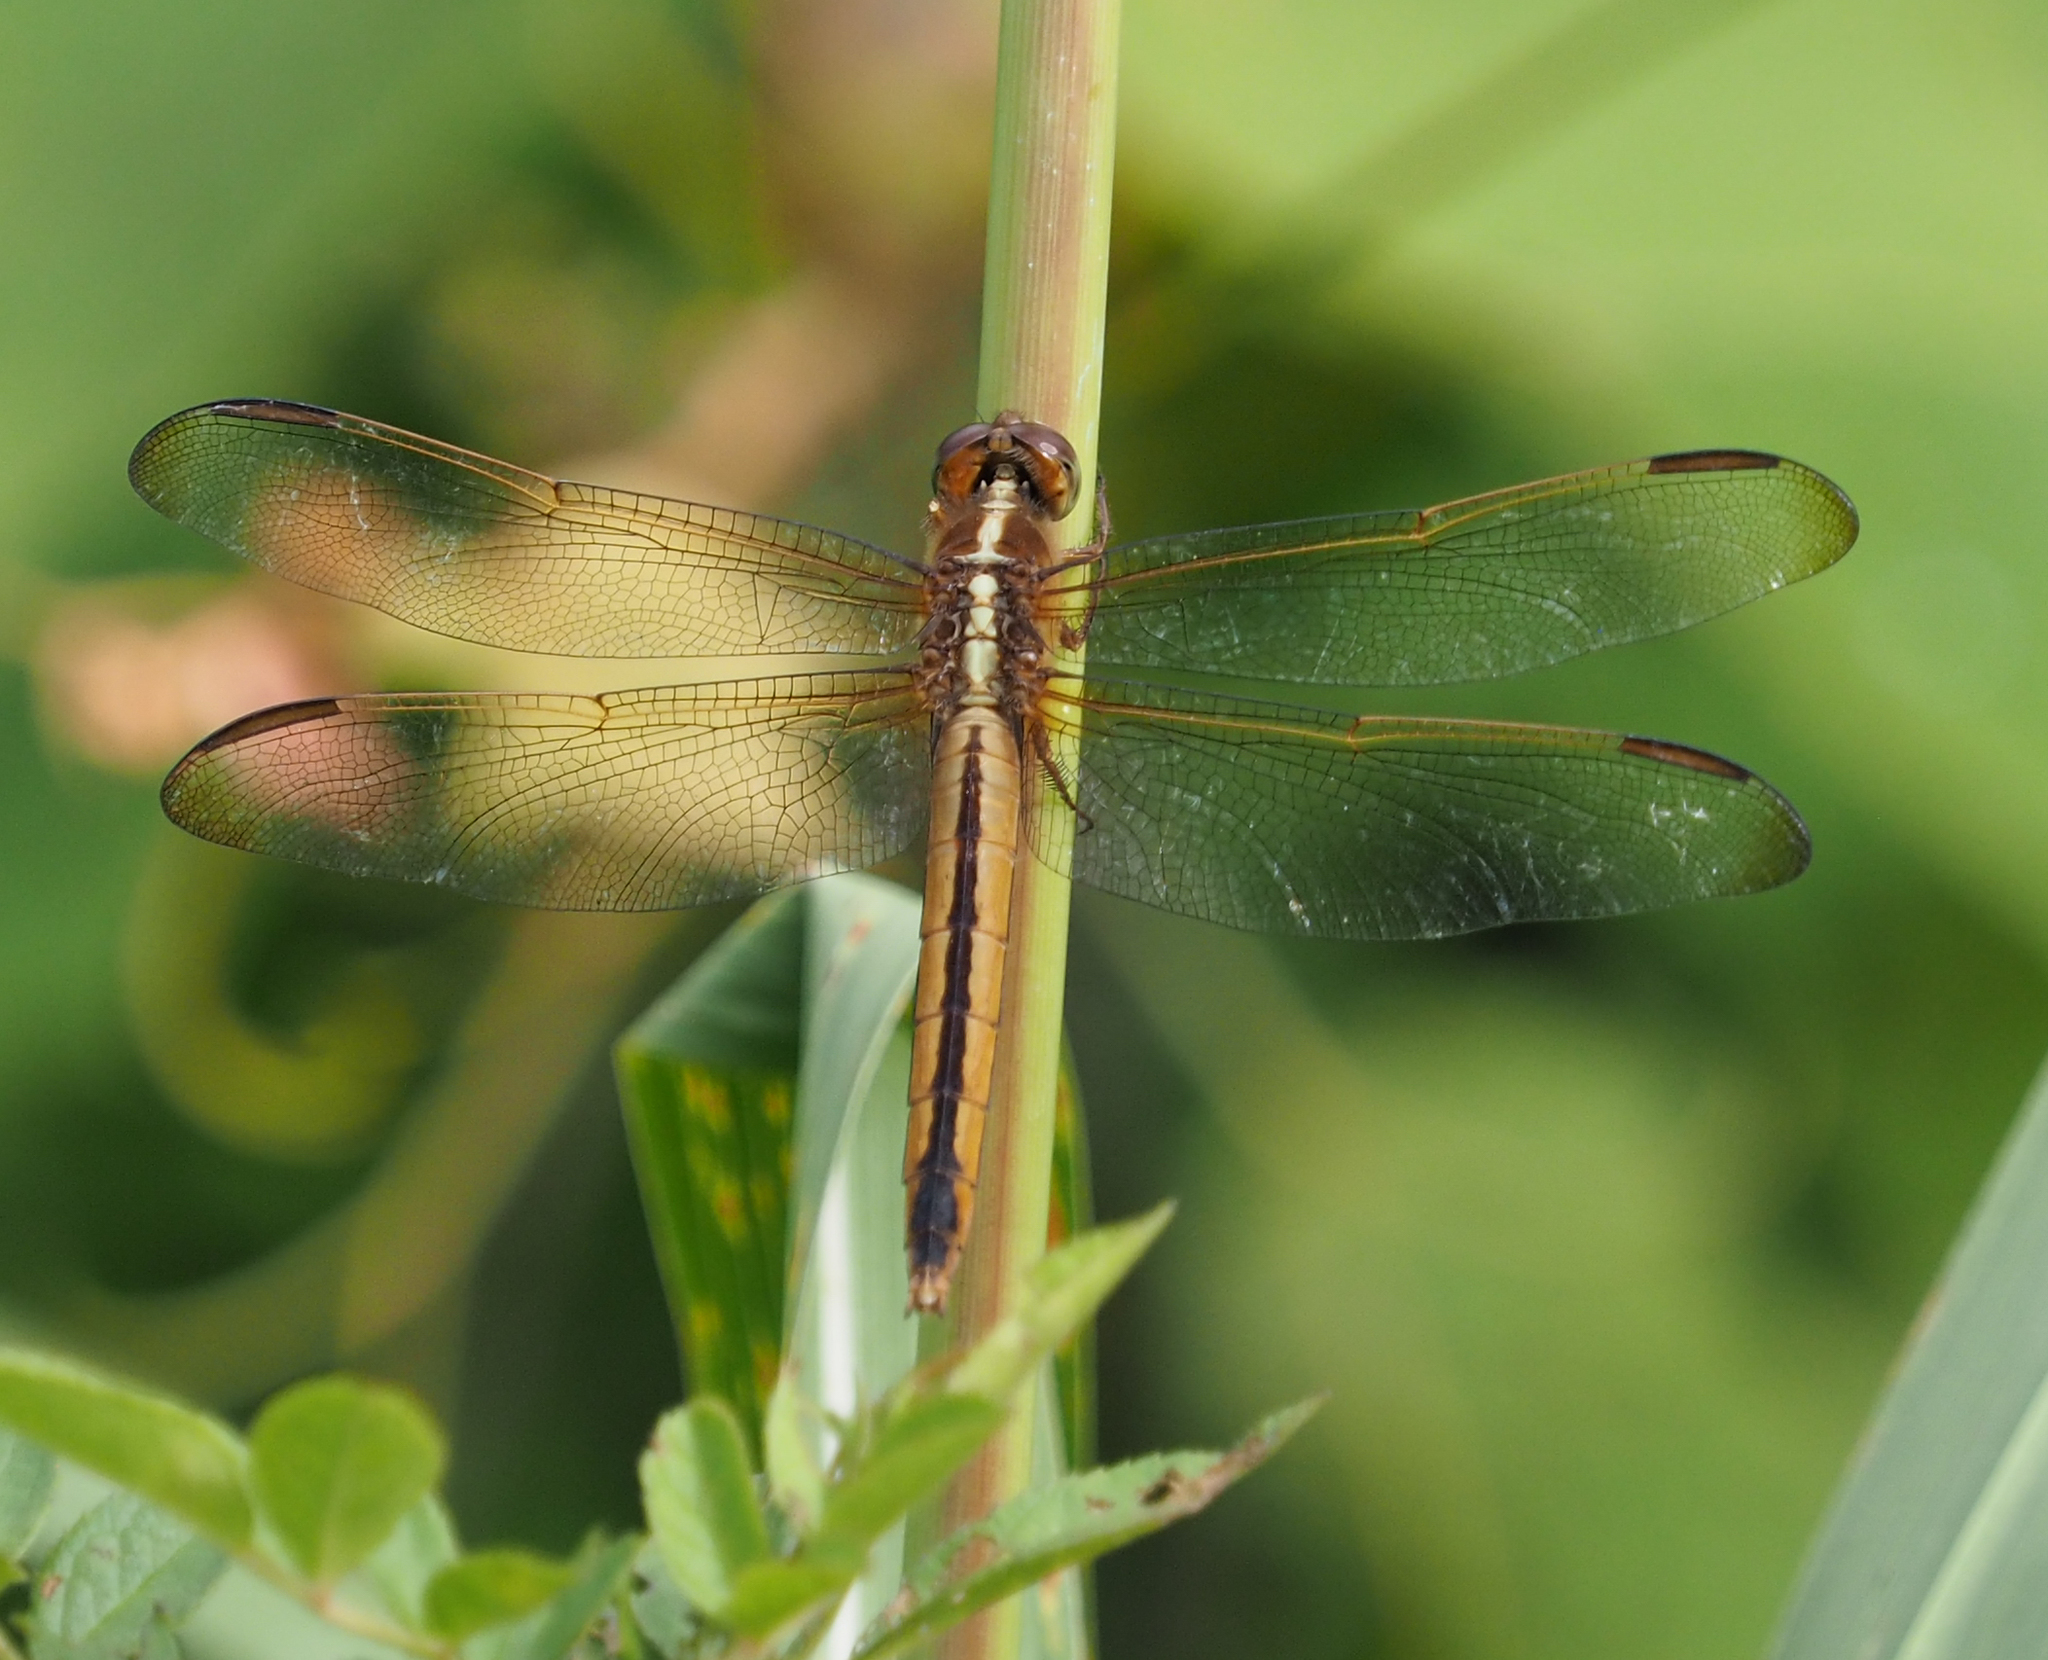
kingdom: Animalia
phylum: Arthropoda
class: Insecta
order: Odonata
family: Libellulidae
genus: Libellula
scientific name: Libellula needhami
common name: Needham's skimmer
